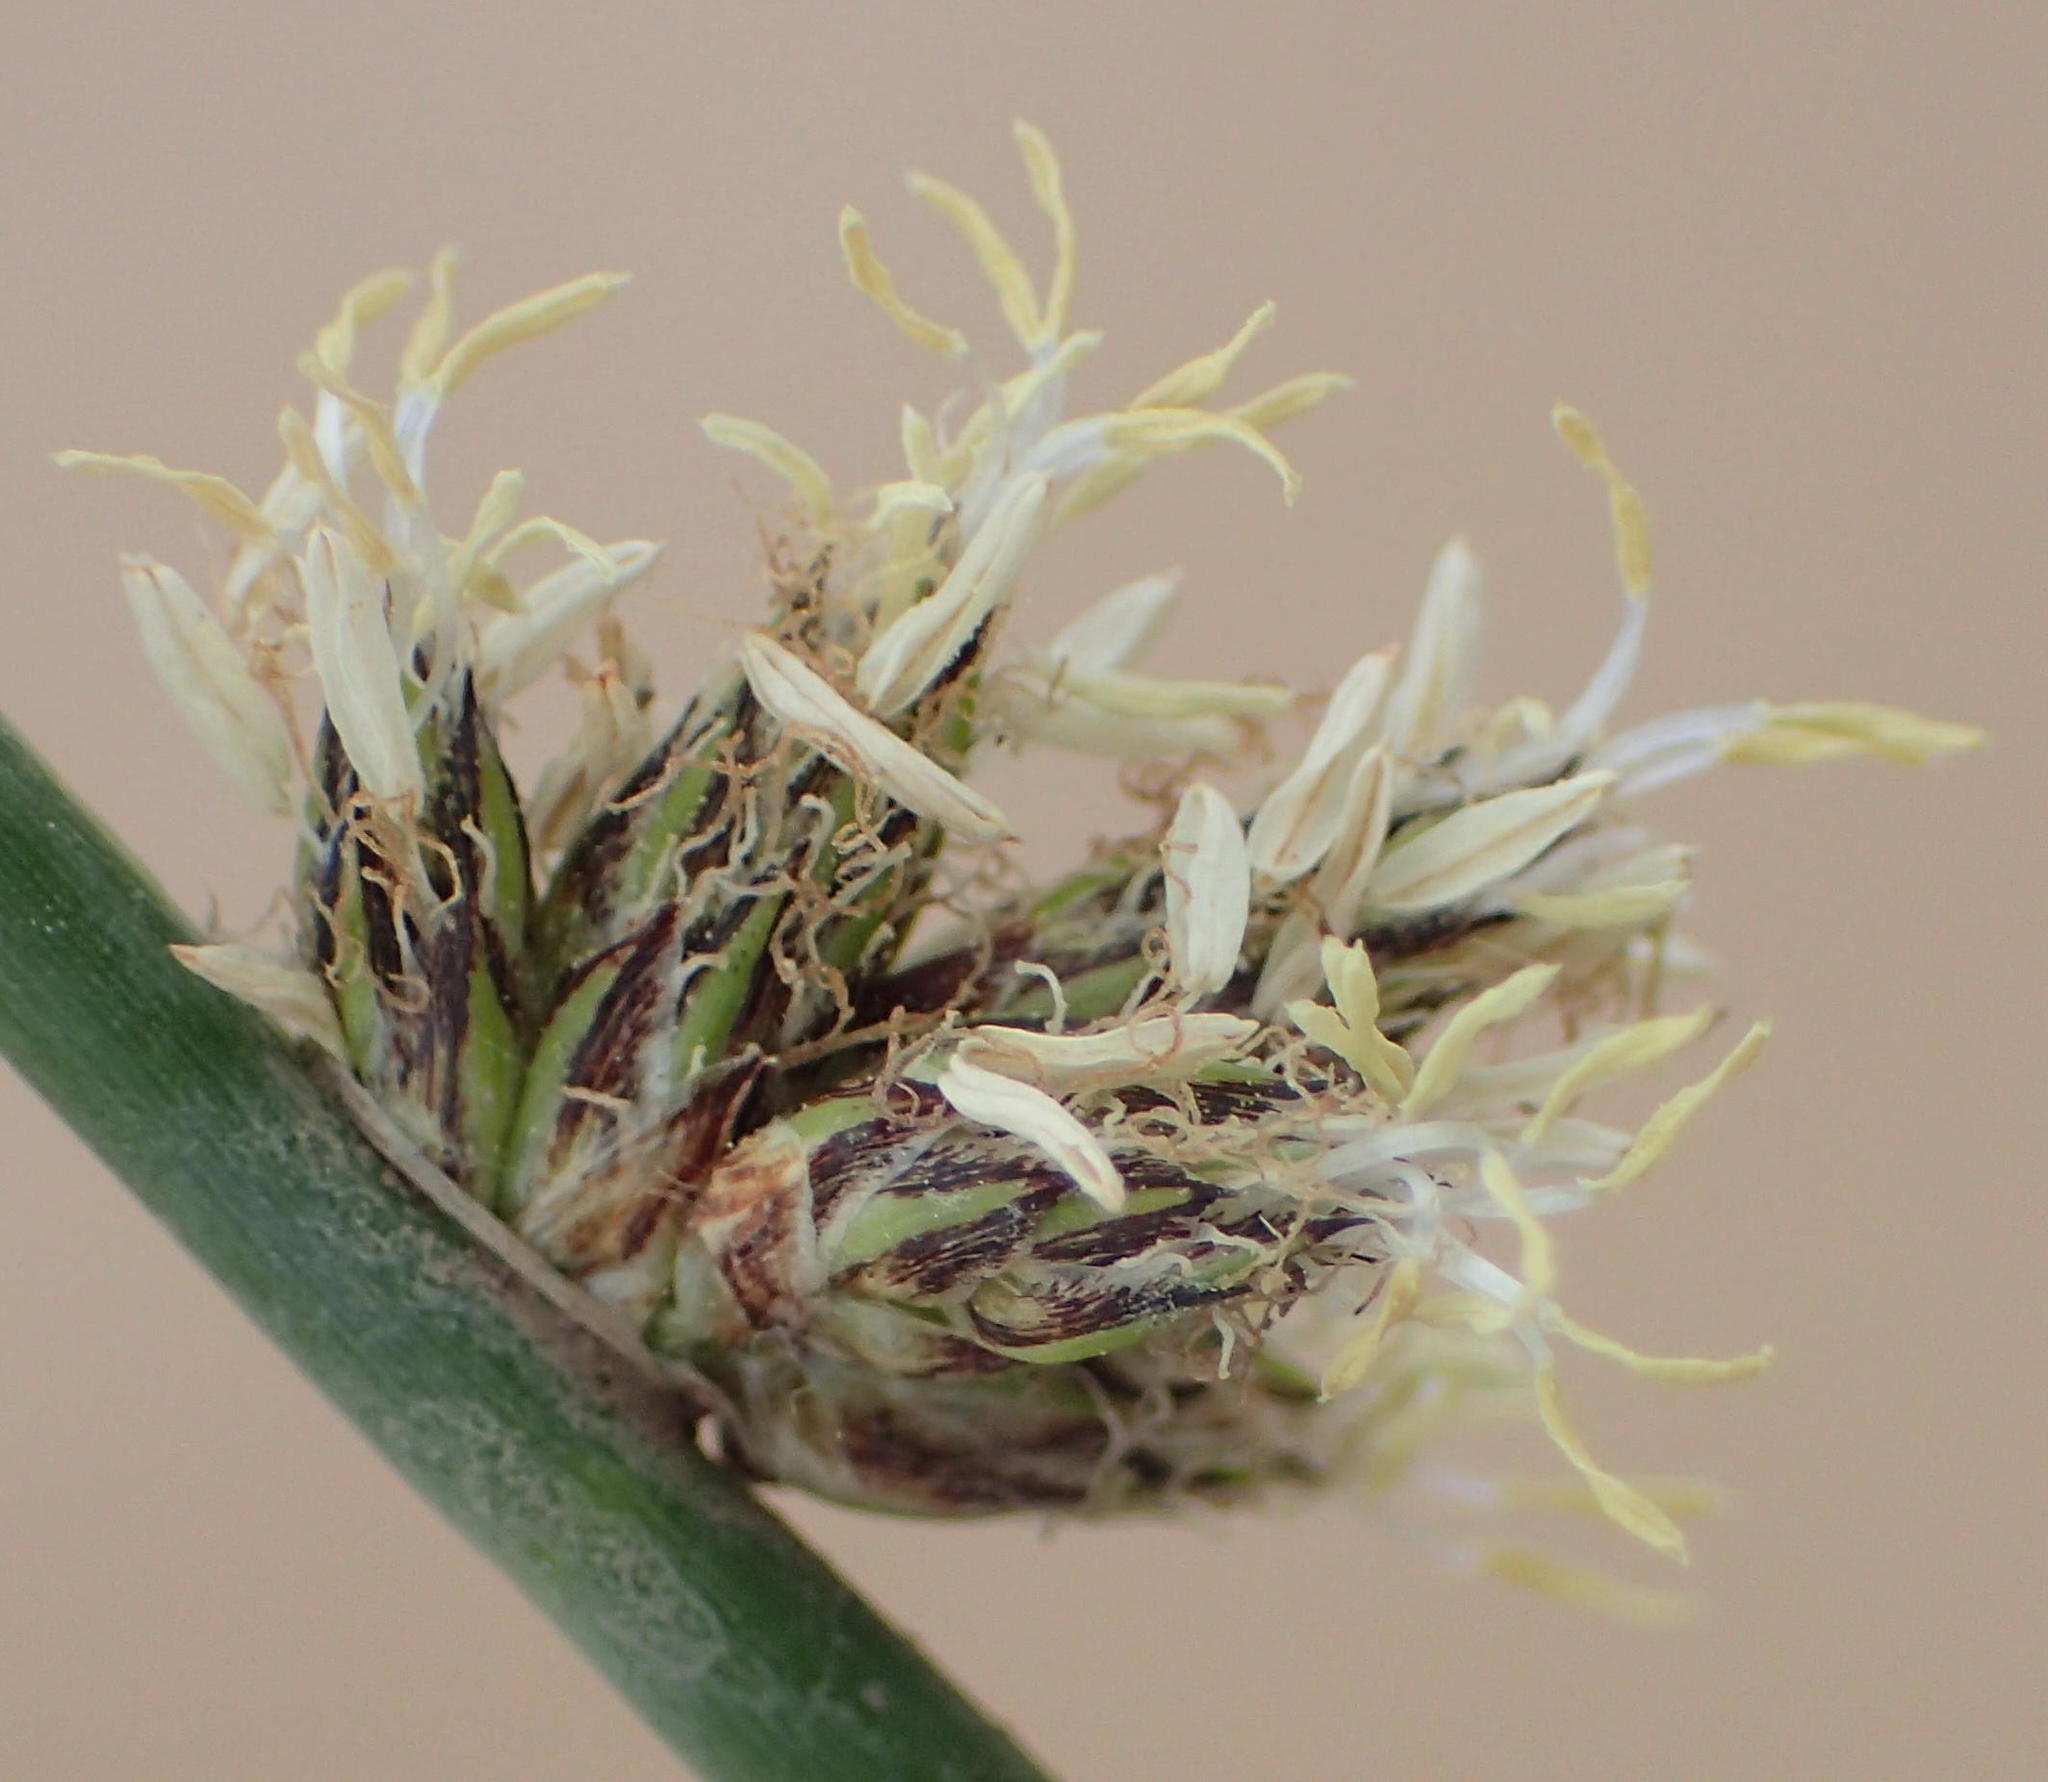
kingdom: Plantae
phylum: Tracheophyta
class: Liliopsida
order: Poales
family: Cyperaceae
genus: Schoenoplectiella
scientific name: Schoenoplectiella decipiens
